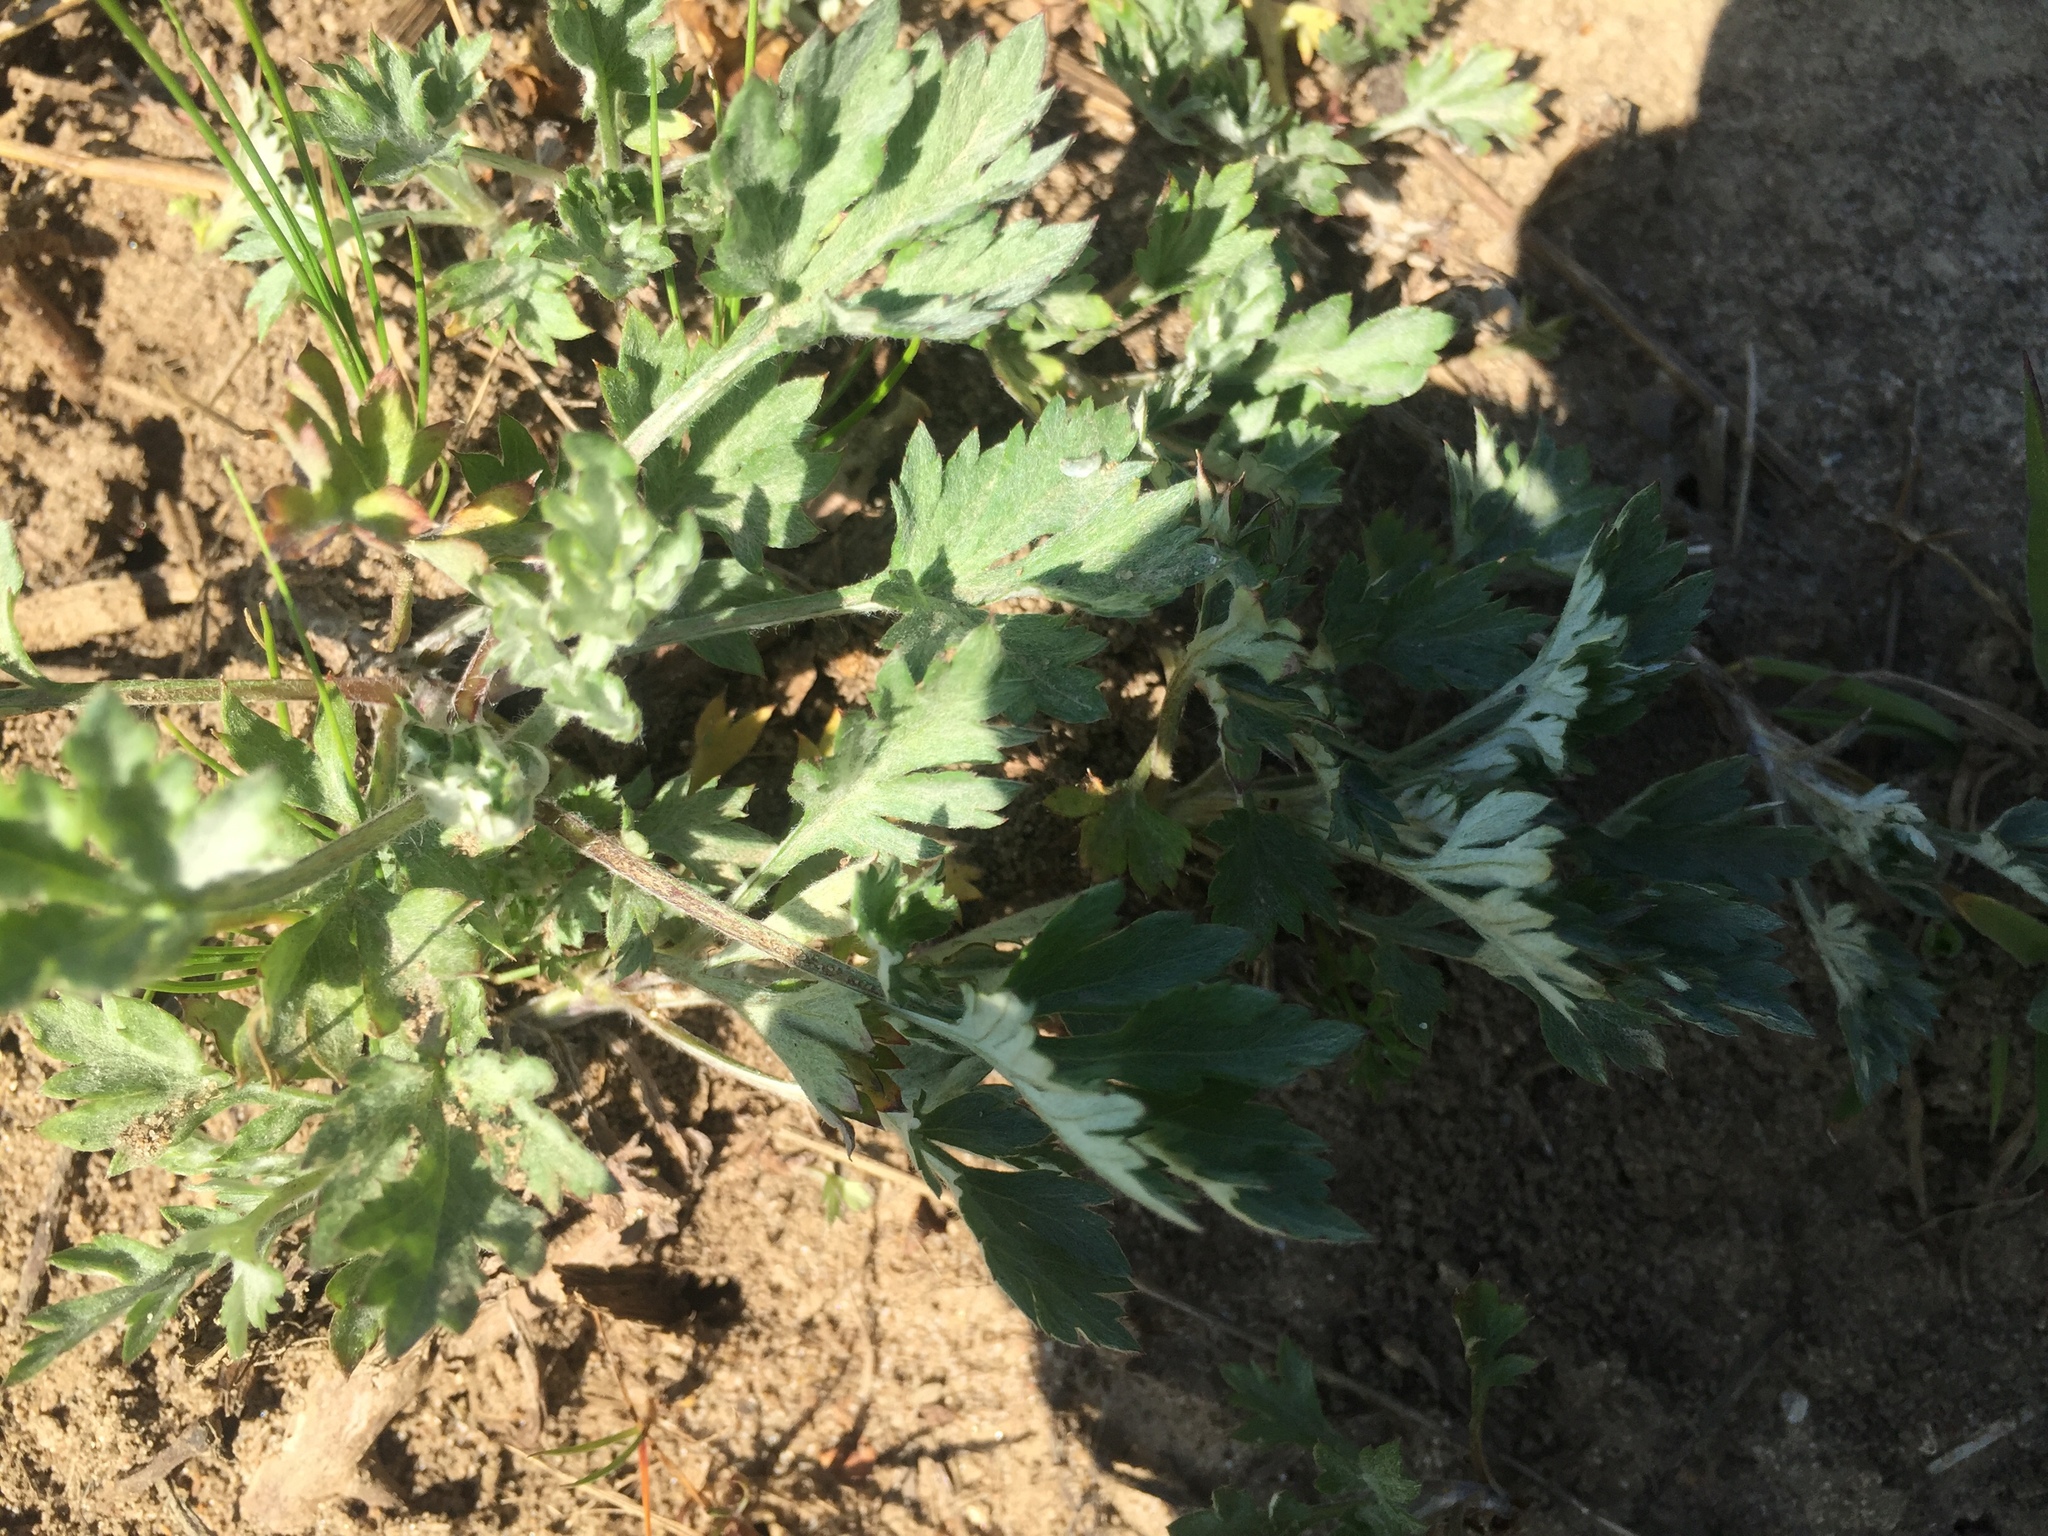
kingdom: Plantae
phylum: Tracheophyta
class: Magnoliopsida
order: Asterales
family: Asteraceae
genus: Artemisia
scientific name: Artemisia vulgaris
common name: Mugwort
